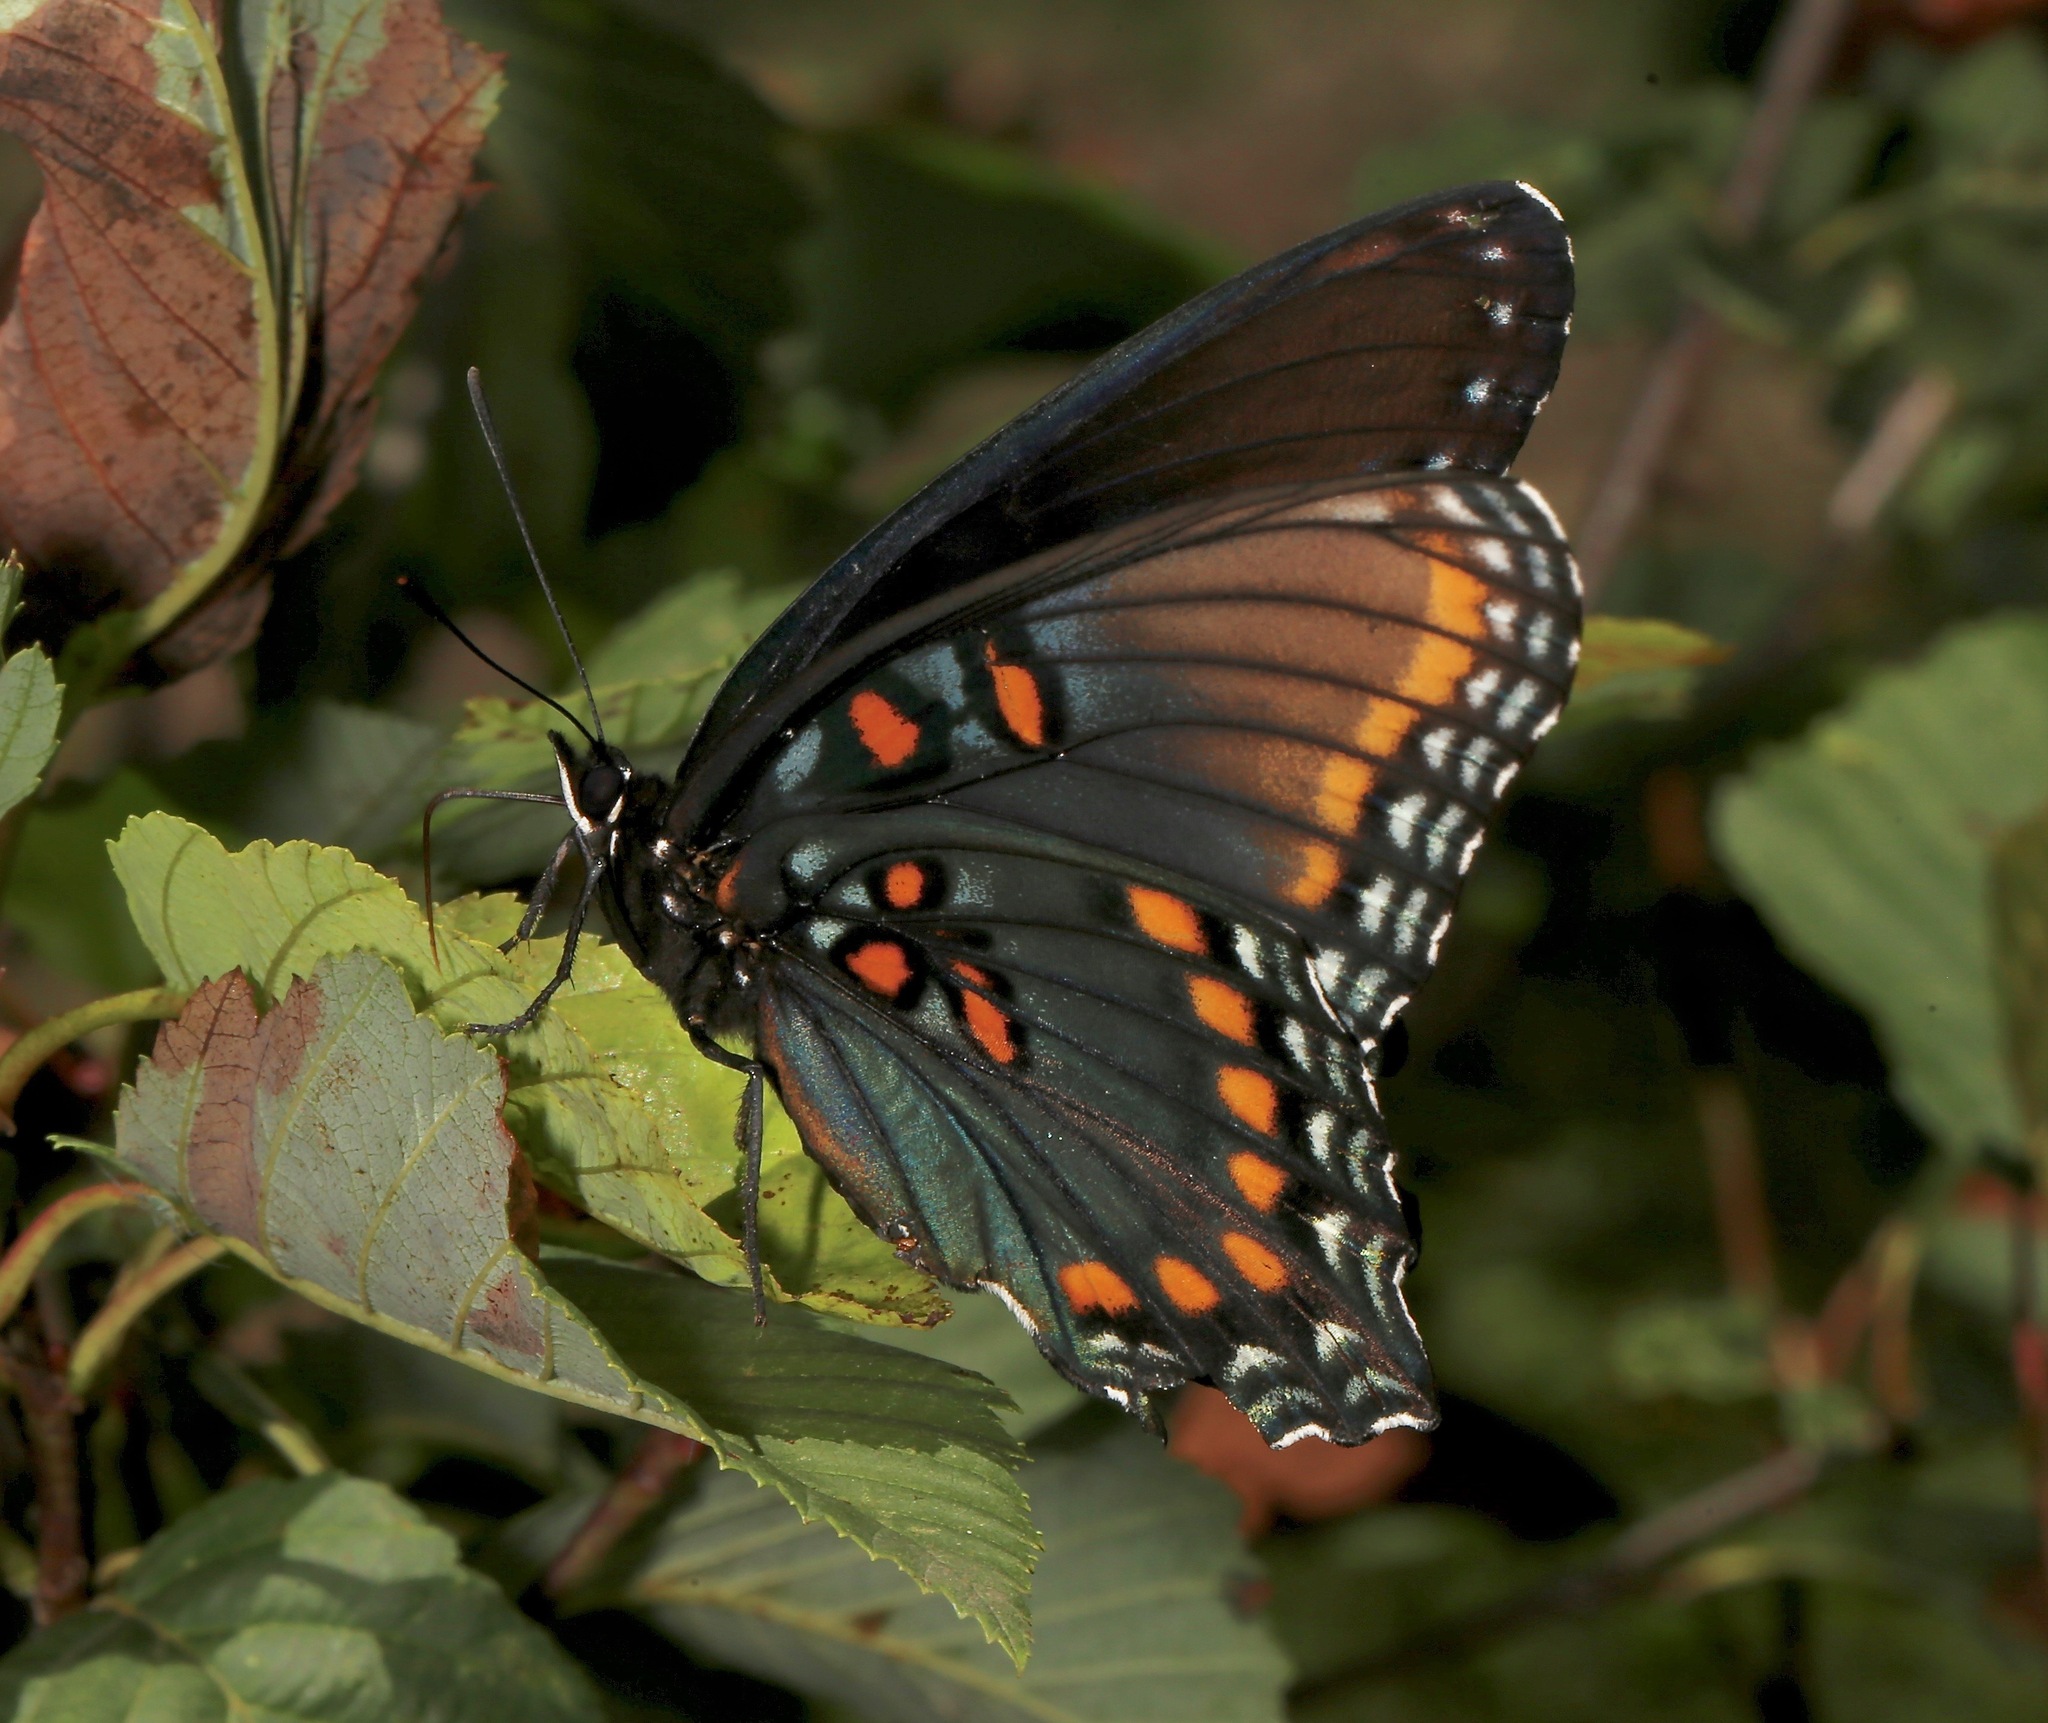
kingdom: Animalia
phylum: Arthropoda
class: Insecta
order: Lepidoptera
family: Nymphalidae
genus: Limenitis
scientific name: Limenitis arthemis
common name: Red-spotted admiral
